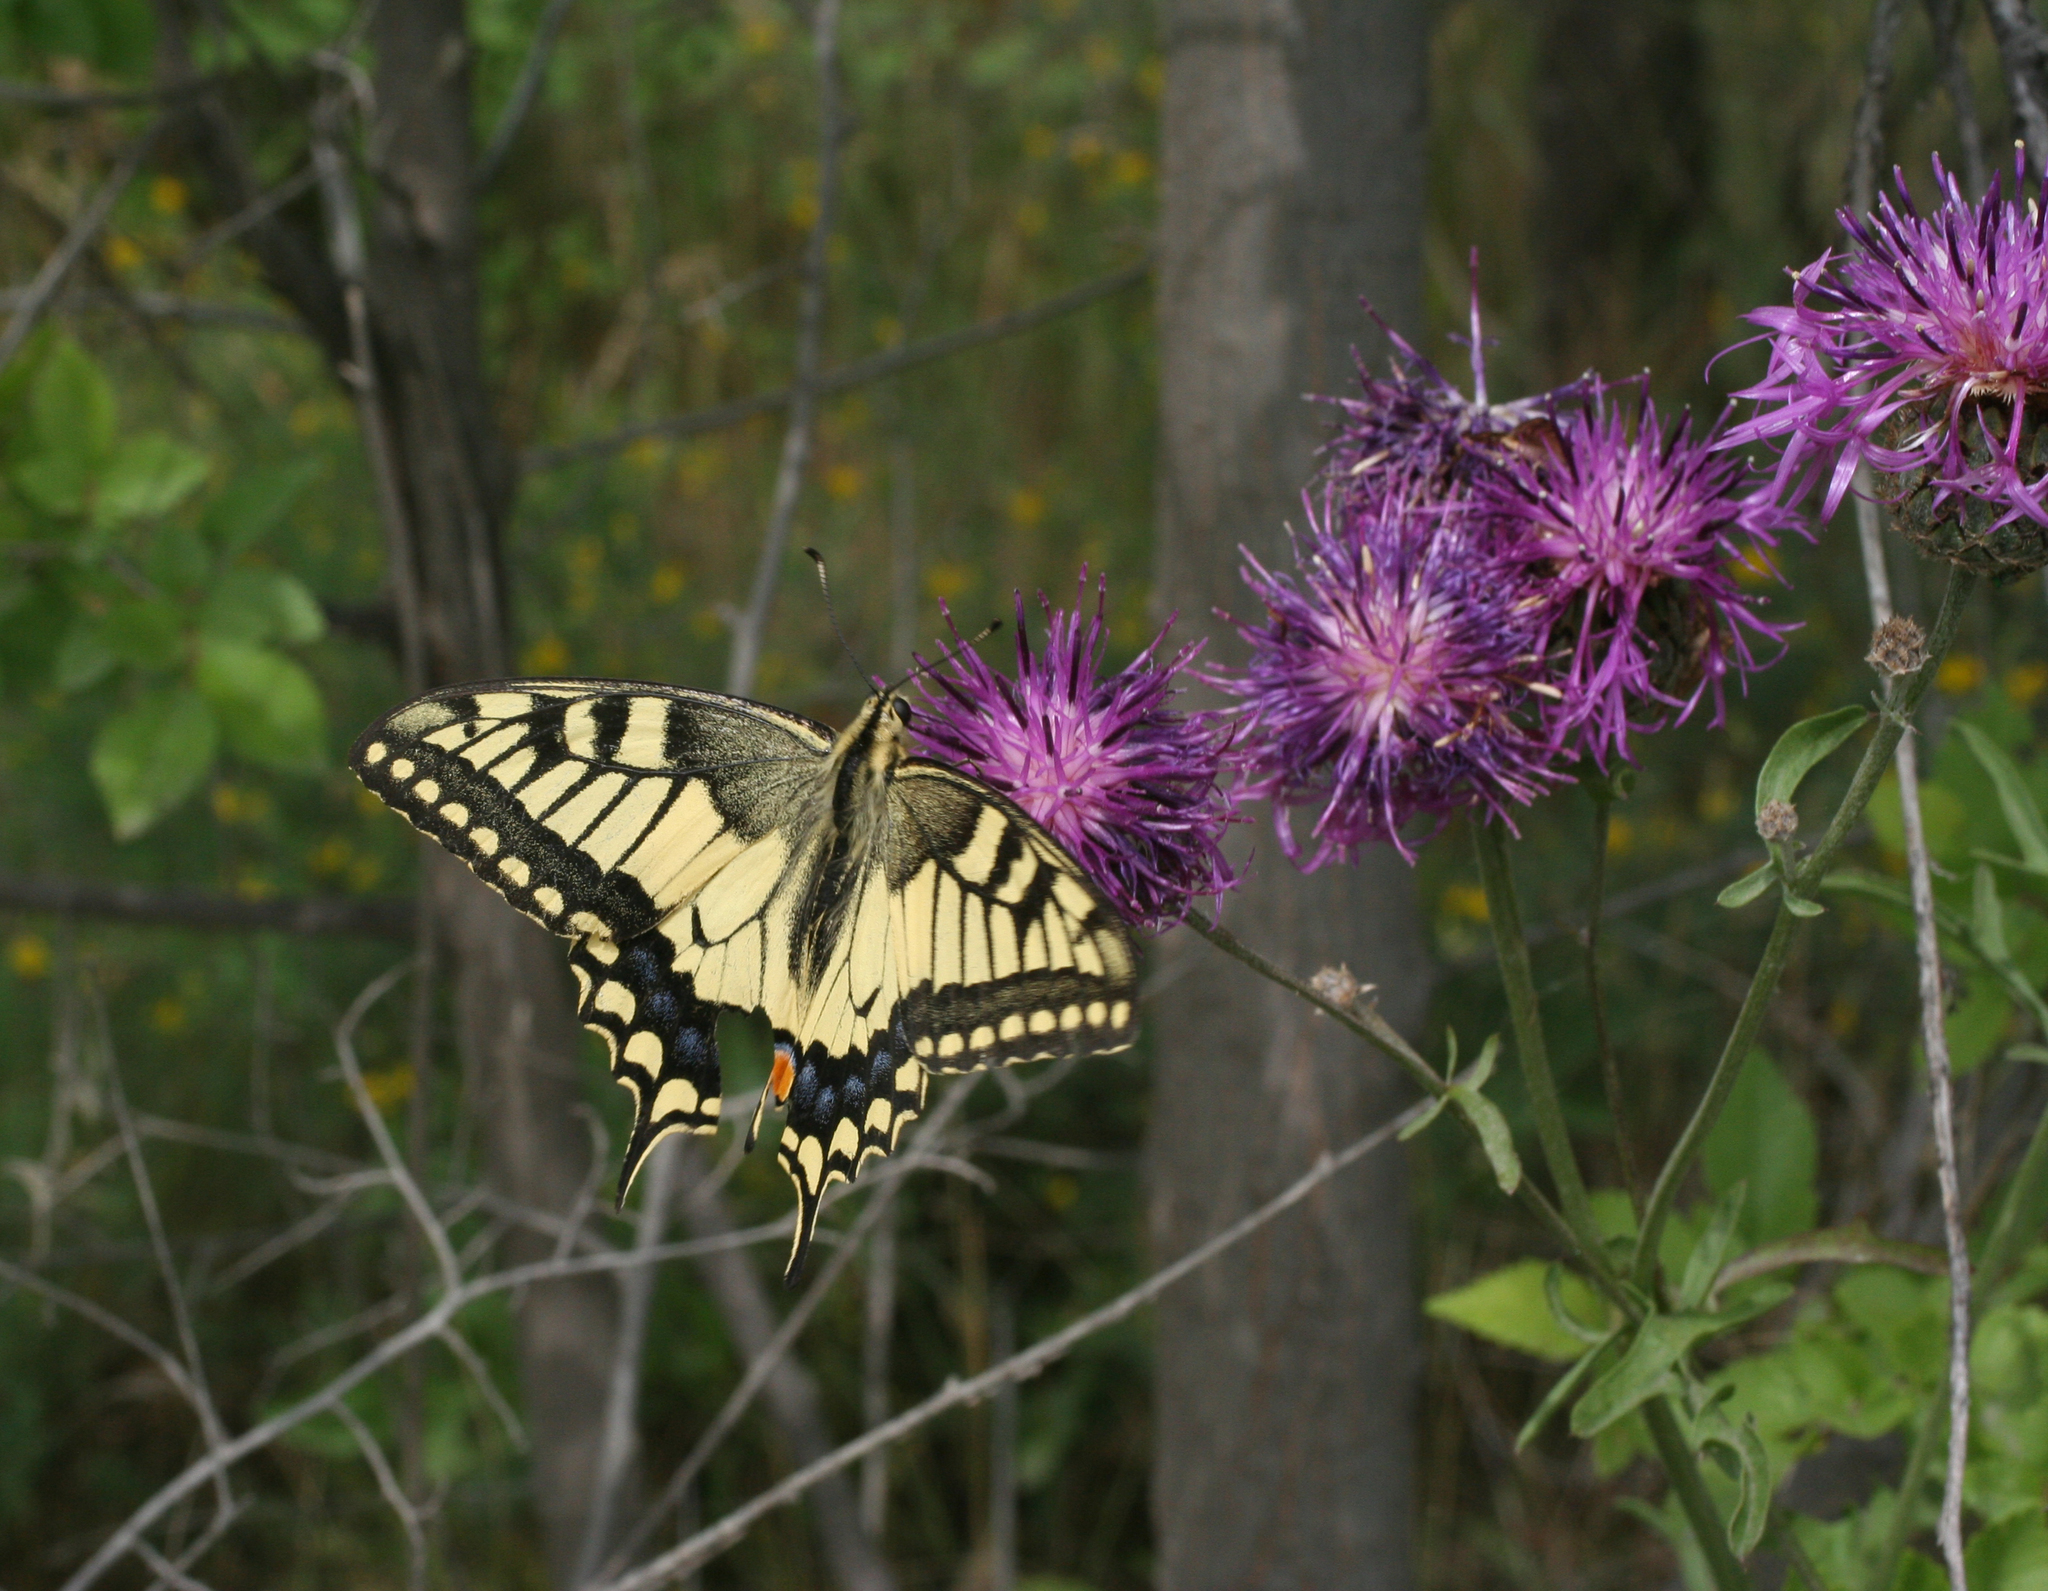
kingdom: Animalia
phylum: Arthropoda
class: Insecta
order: Lepidoptera
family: Papilionidae
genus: Papilio
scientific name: Papilio machaon
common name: Swallowtail
